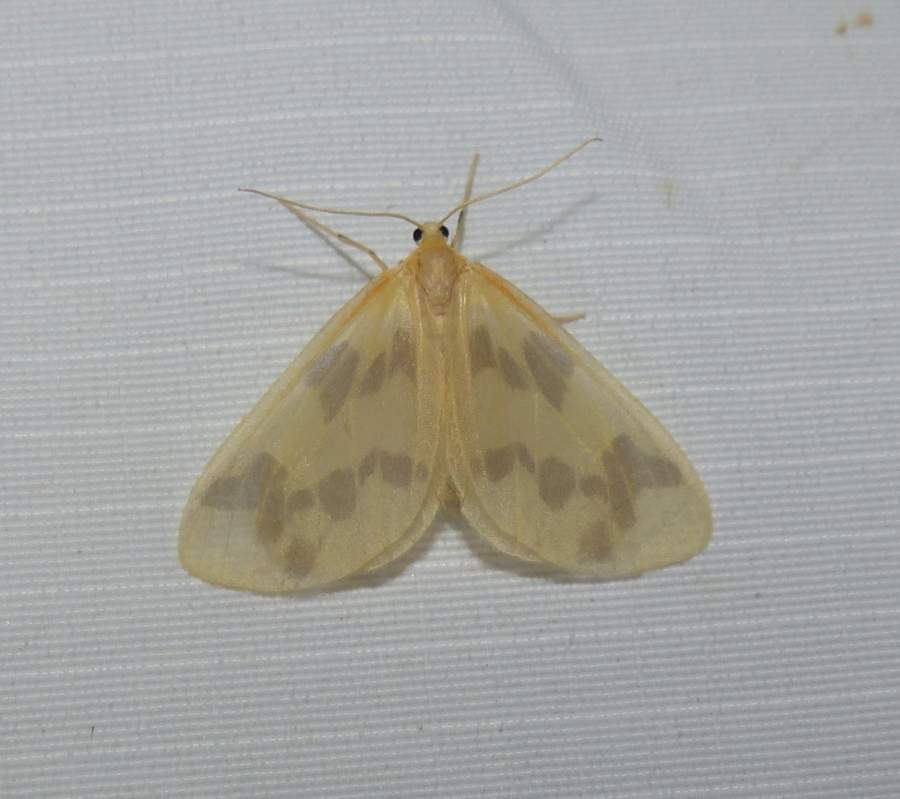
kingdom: Animalia
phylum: Arthropoda
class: Insecta
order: Lepidoptera
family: Geometridae
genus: Eubaphe
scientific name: Eubaphe mendica
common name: Beggar
